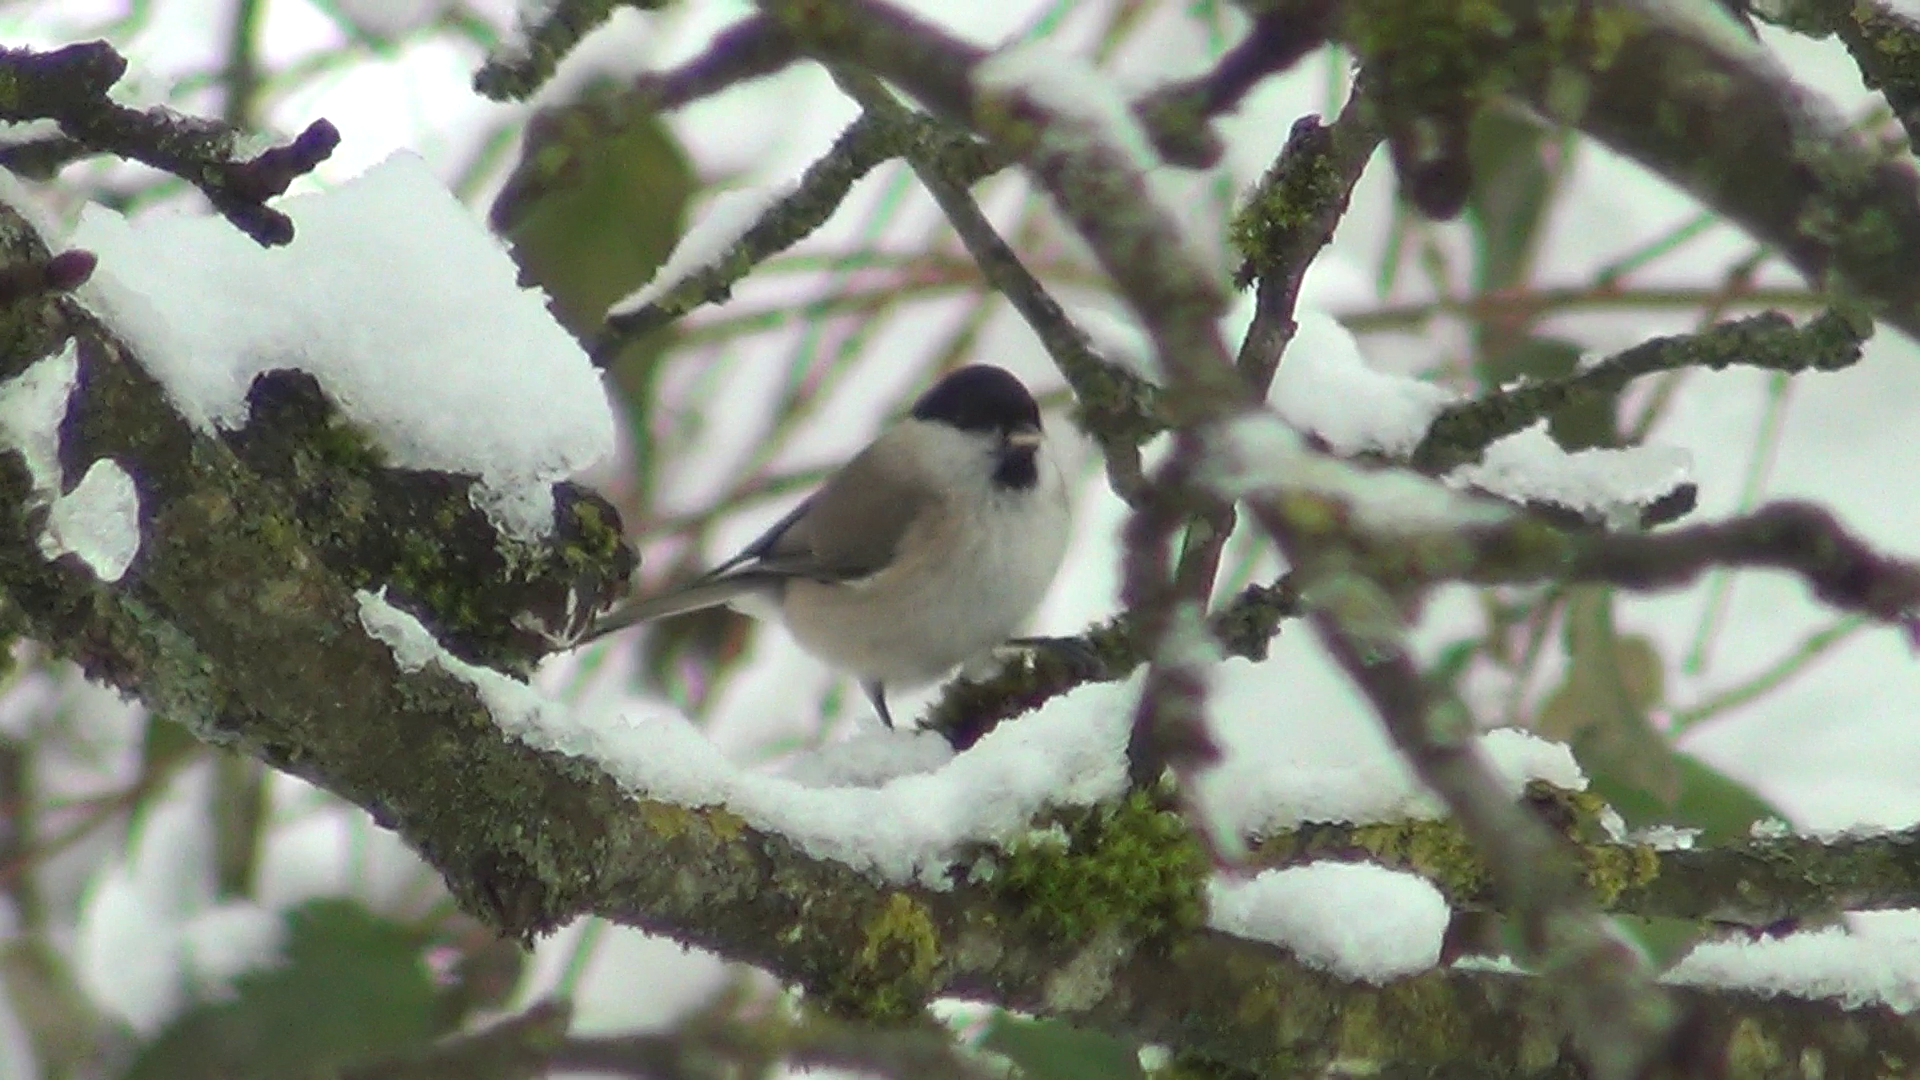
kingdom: Animalia
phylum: Chordata
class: Aves
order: Passeriformes
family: Paridae
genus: Poecile
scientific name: Poecile palustris
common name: Marsh tit
